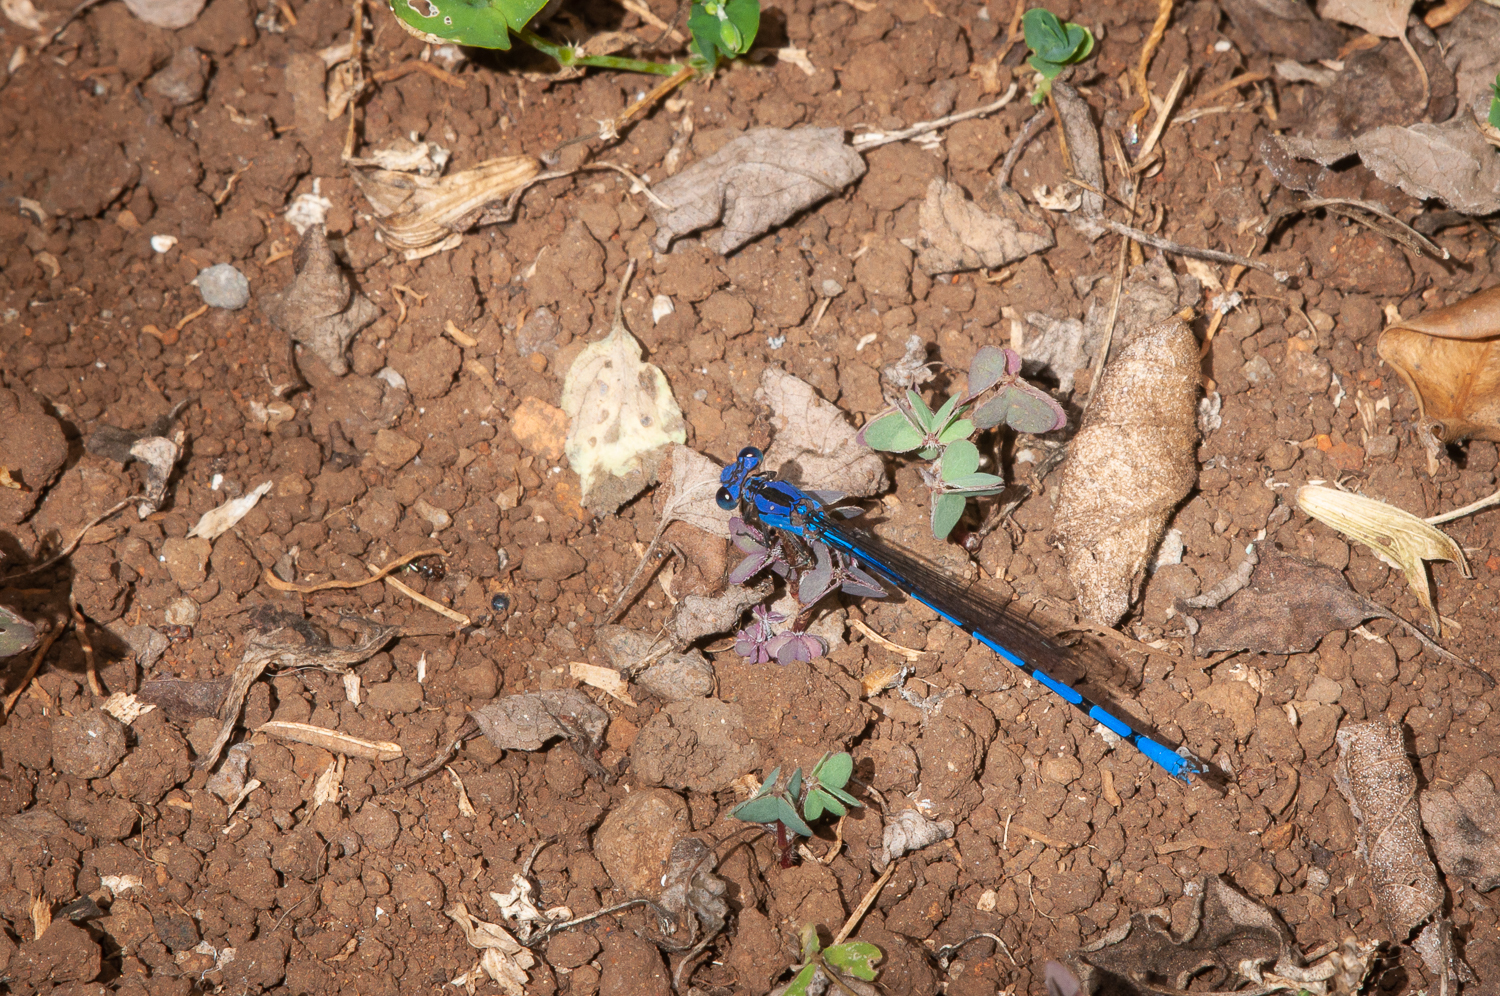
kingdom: Animalia
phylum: Arthropoda
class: Insecta
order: Odonata
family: Coenagrionidae
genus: Argia
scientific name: Argia elongata
